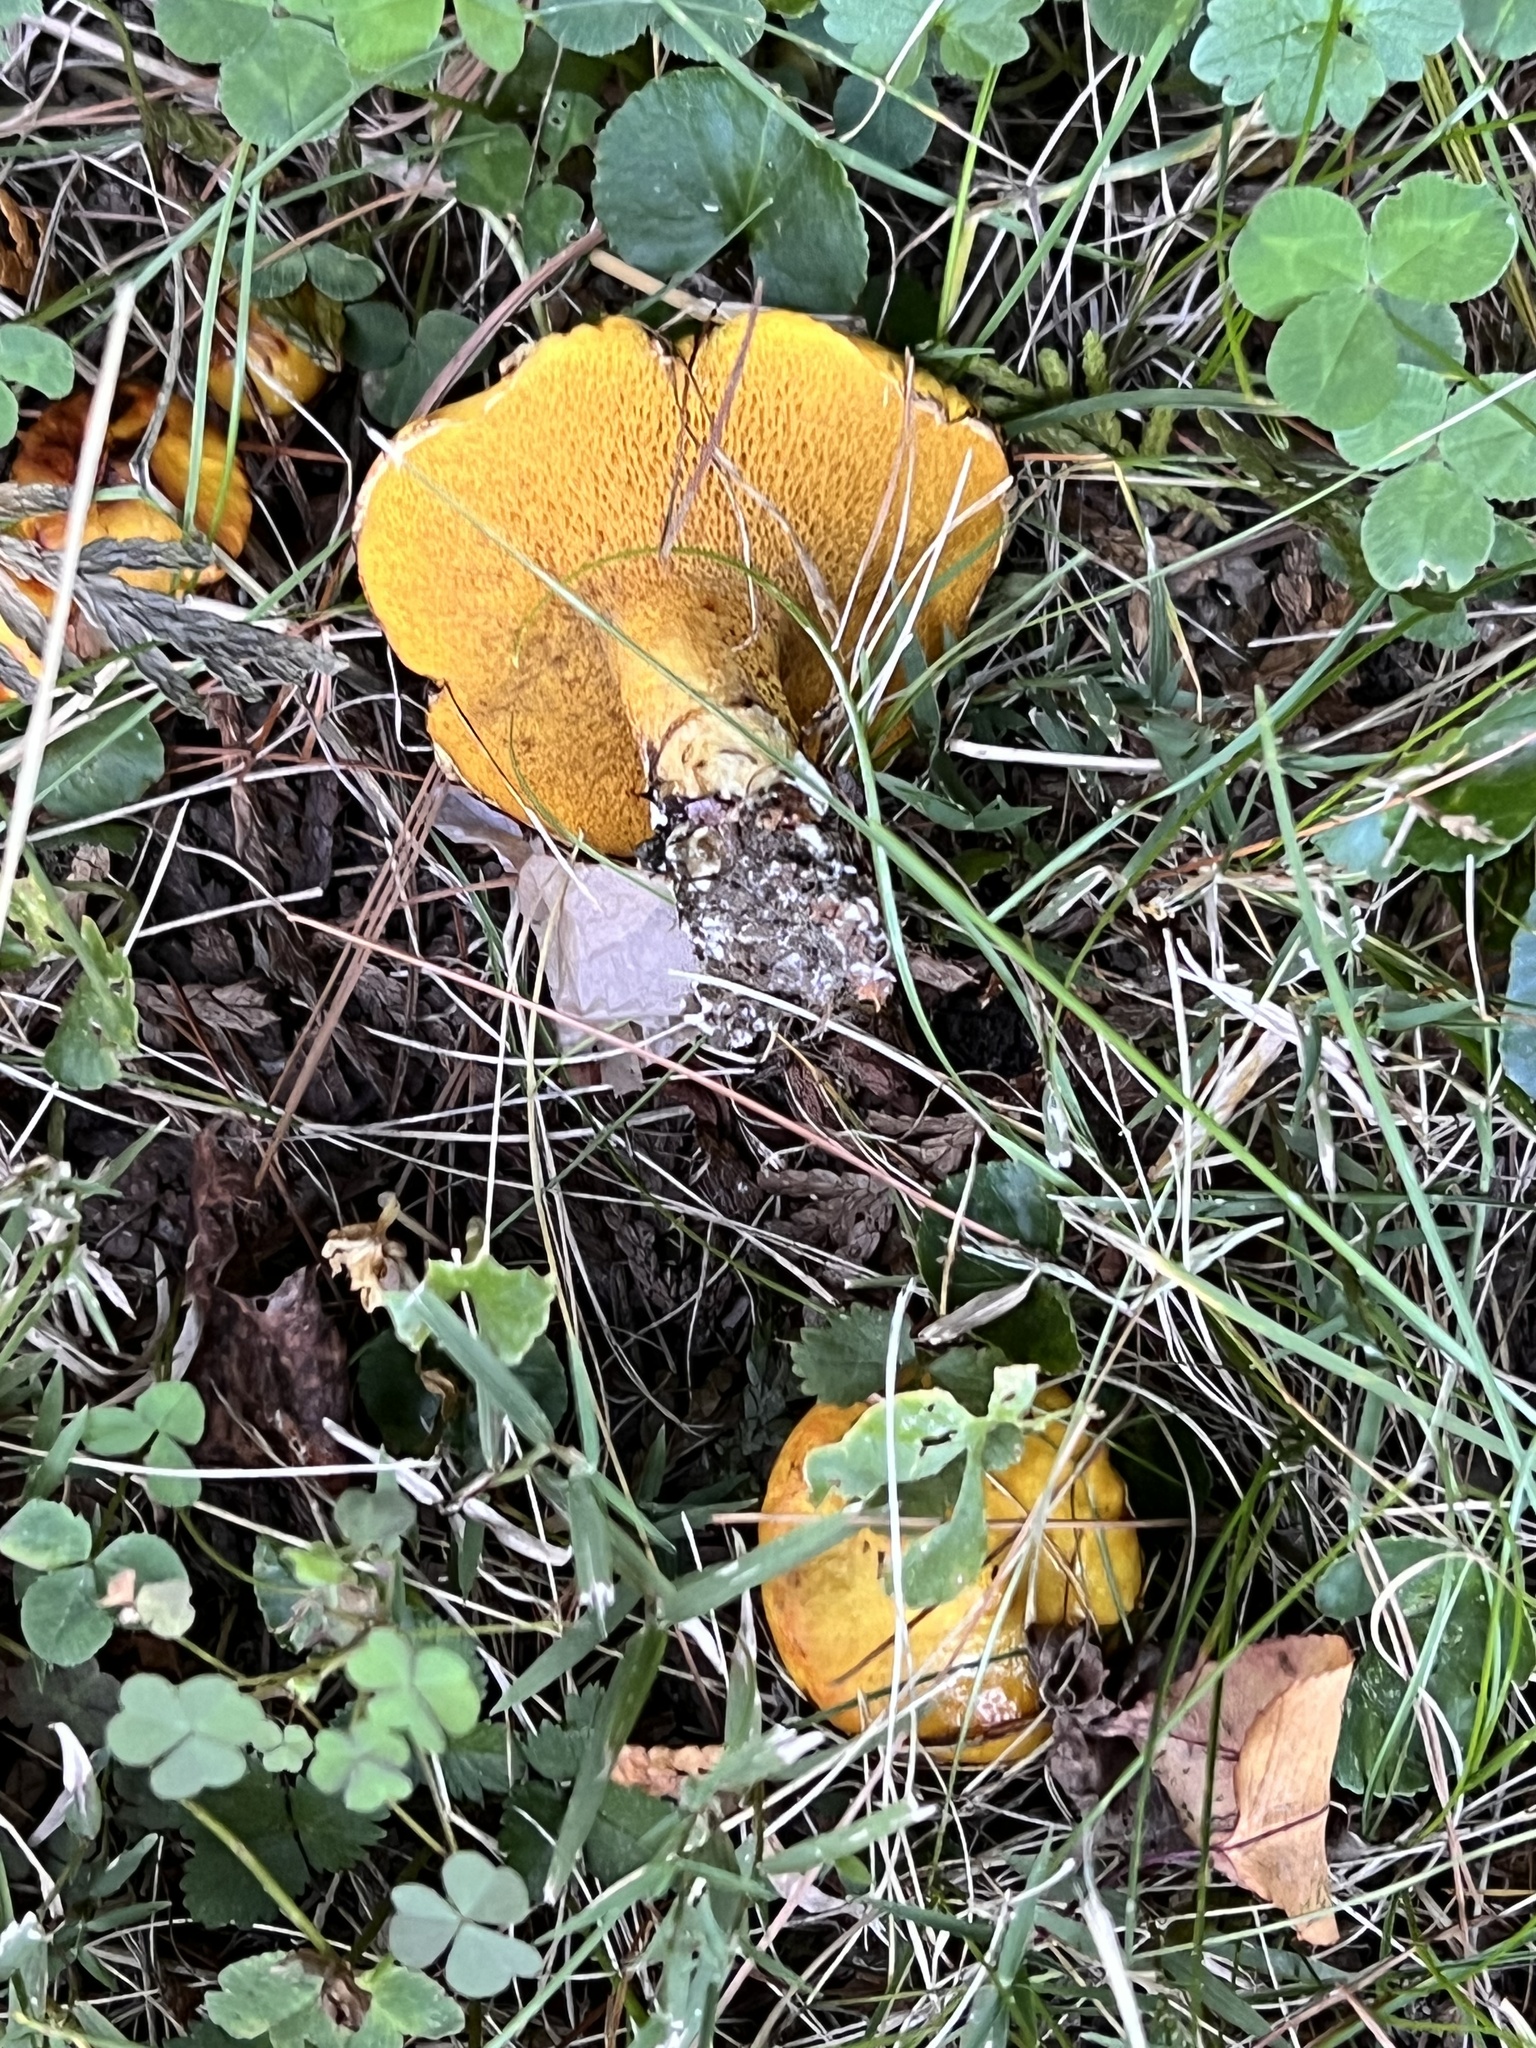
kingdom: Fungi
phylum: Basidiomycota
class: Agaricomycetes
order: Boletales
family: Suillaceae
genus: Suillus
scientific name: Suillus americanus
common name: Chicken fat mushroom
